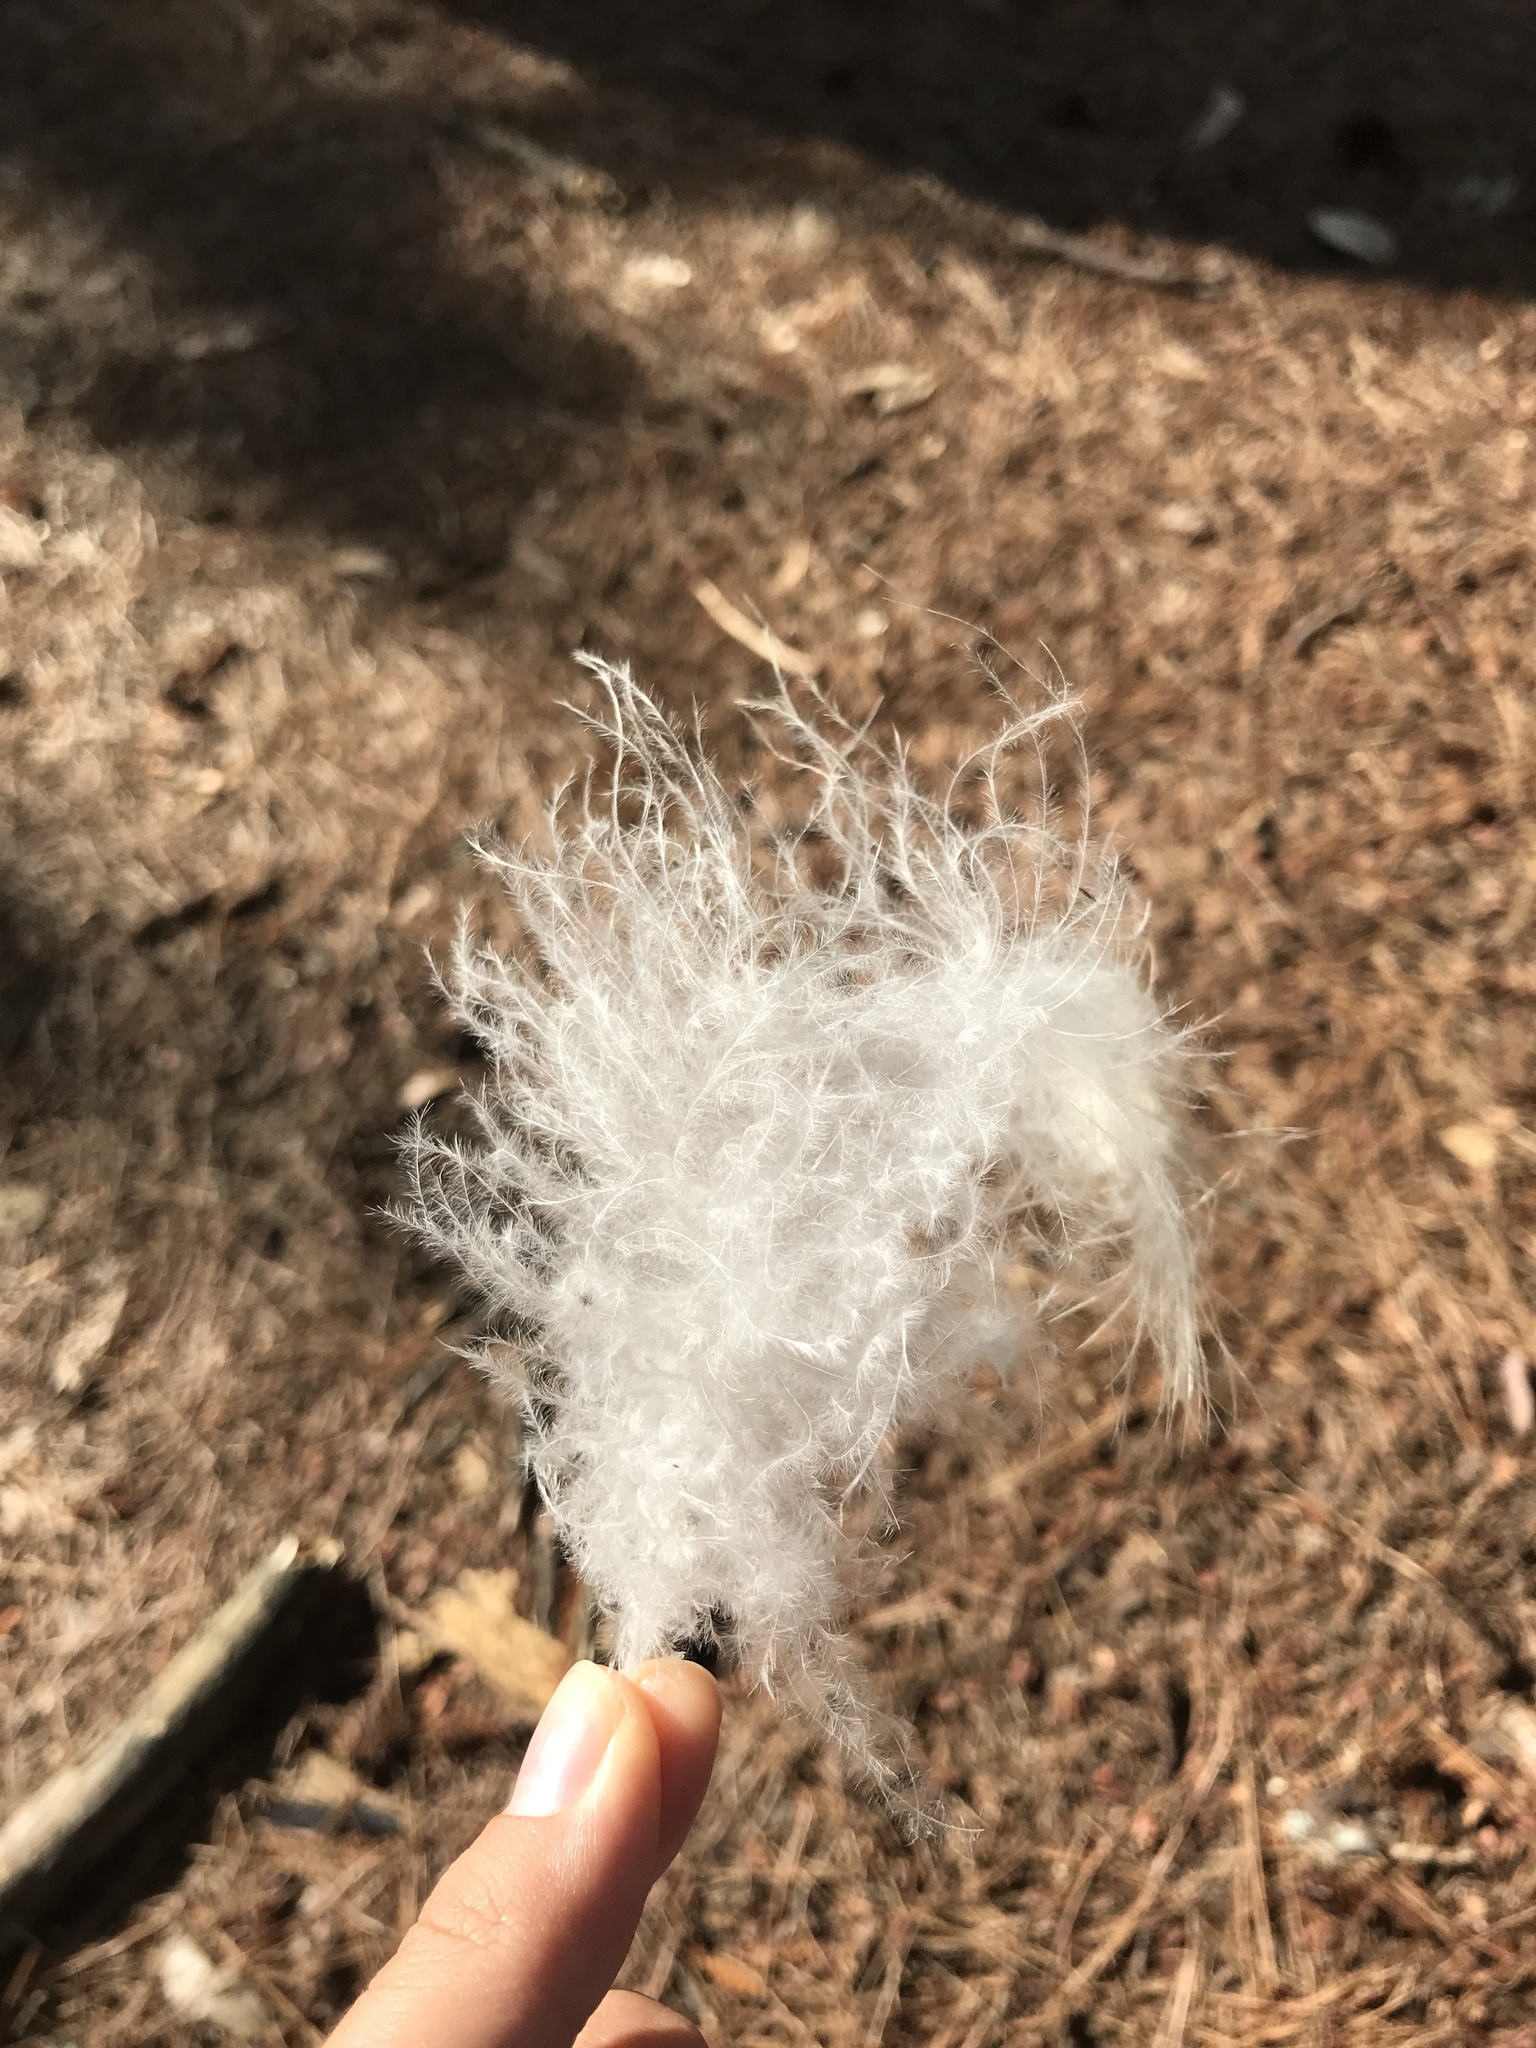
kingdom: Animalia
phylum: Chordata
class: Aves
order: Accipitriformes
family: Accipitridae
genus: Buteo
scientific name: Buteo jamaicensis
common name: Red-tailed hawk
